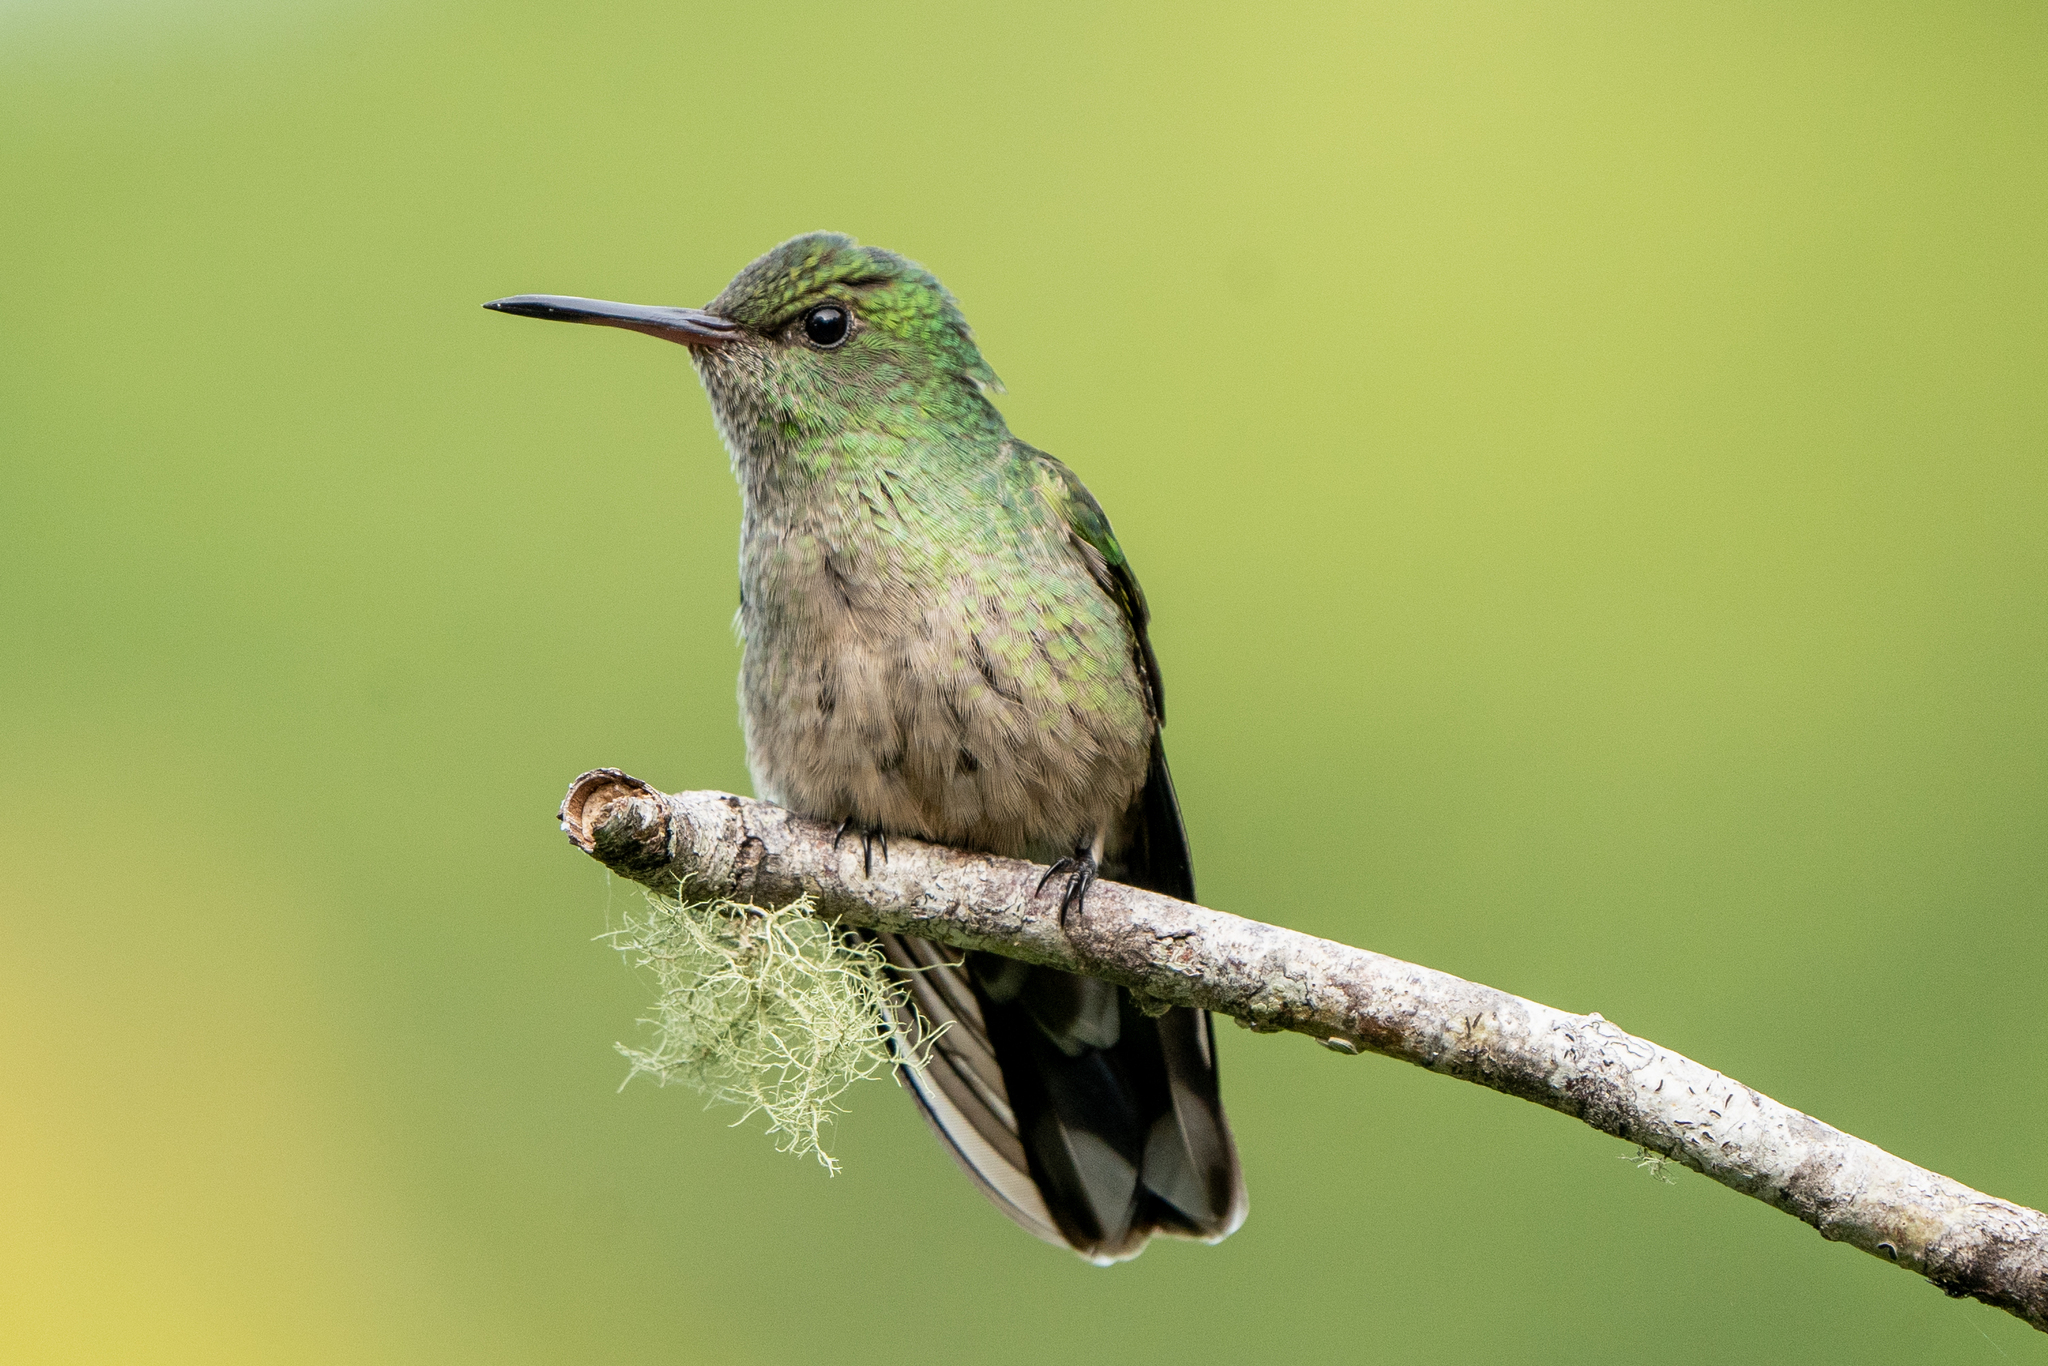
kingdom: Animalia
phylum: Chordata
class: Aves
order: Apodiformes
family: Trochilidae
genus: Phaeochroa
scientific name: Phaeochroa cuvierii
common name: Scaly-breasted hummingbird
